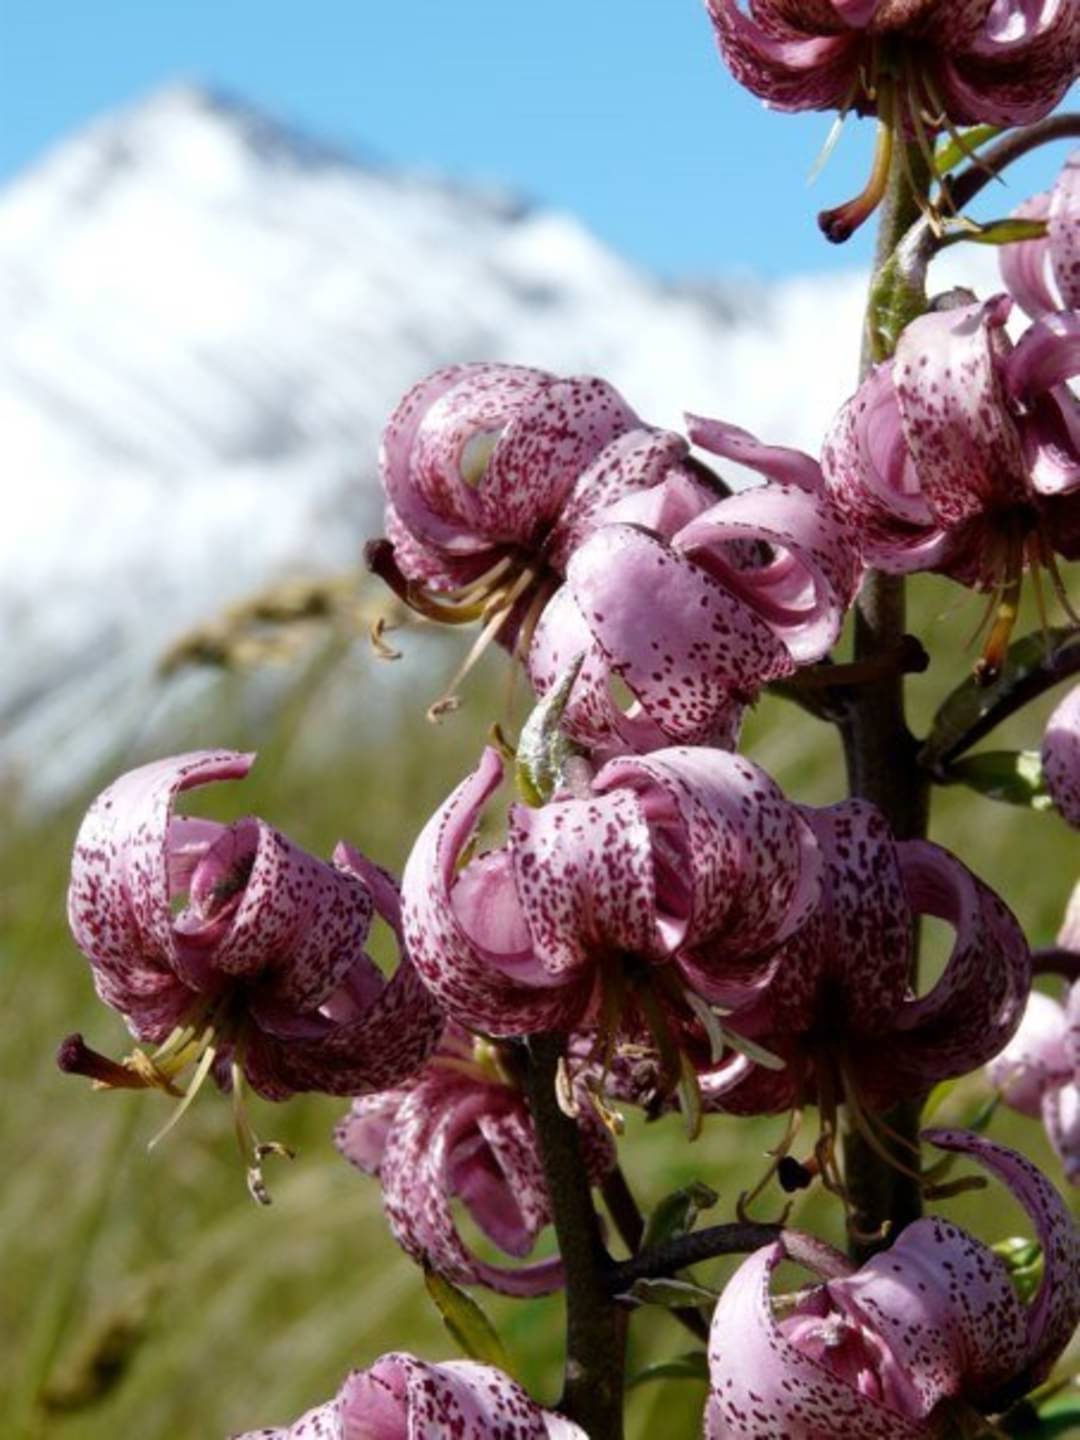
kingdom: Plantae
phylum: Tracheophyta
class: Liliopsida
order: Liliales
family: Liliaceae
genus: Lilium
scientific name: Lilium martagon
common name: Martagon lily
